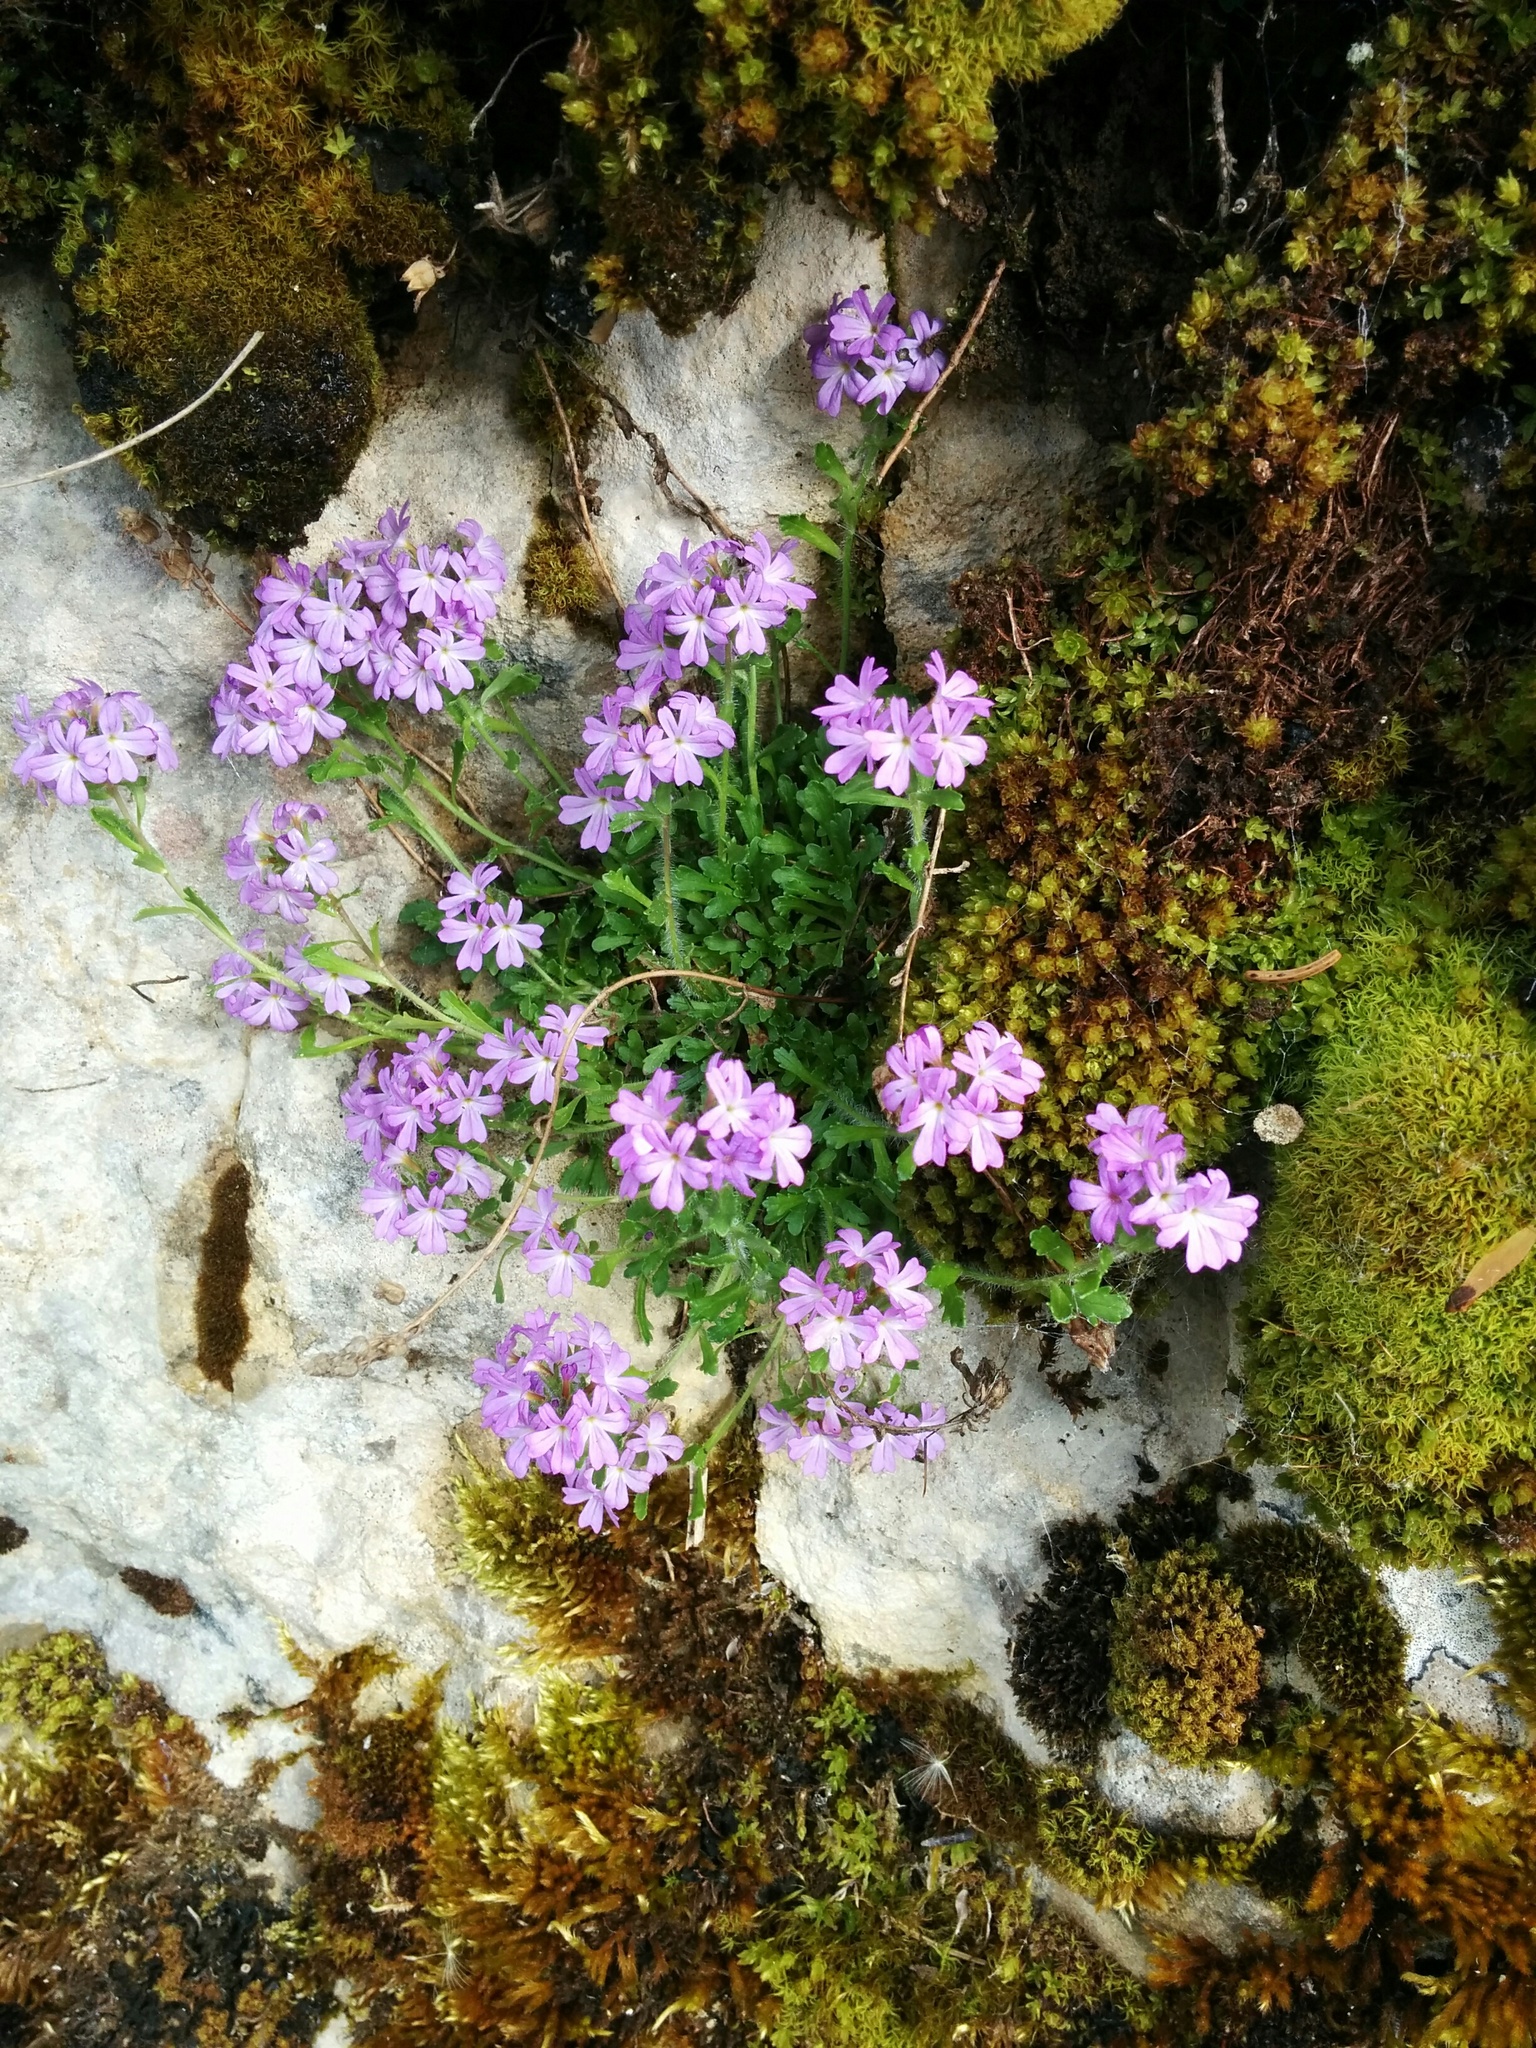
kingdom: Plantae
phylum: Tracheophyta
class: Magnoliopsida
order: Lamiales
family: Plantaginaceae
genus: Erinus
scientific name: Erinus alpinus
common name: Fairy foxglove
